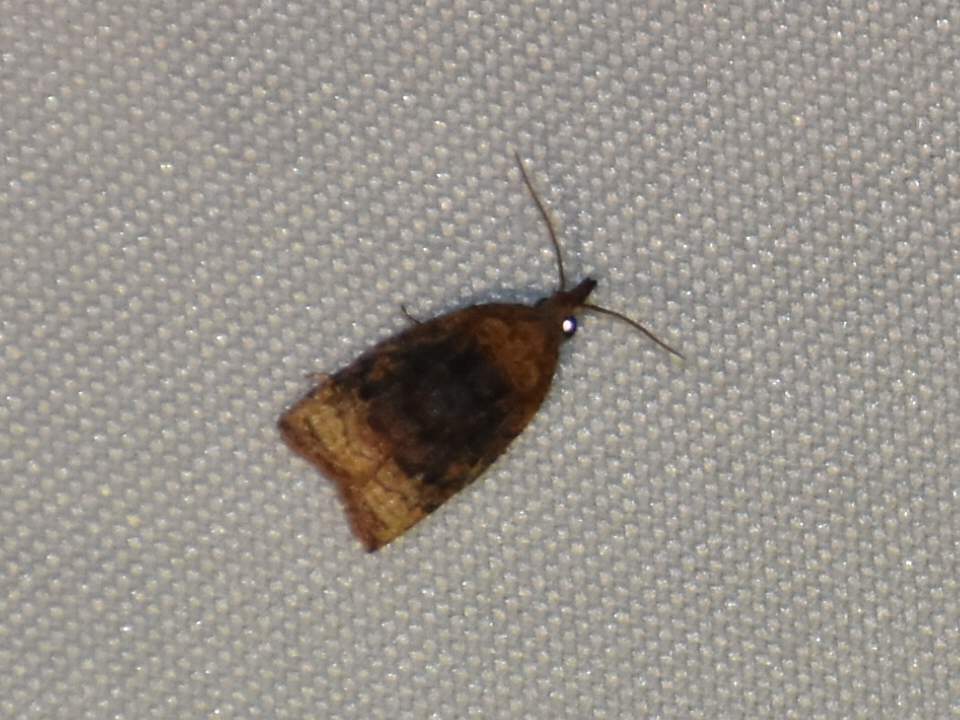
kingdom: Animalia
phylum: Arthropoda
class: Insecta
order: Lepidoptera
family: Tortricidae
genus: Platynota
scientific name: Platynota flavedana
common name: Black-shaded platynota moth
